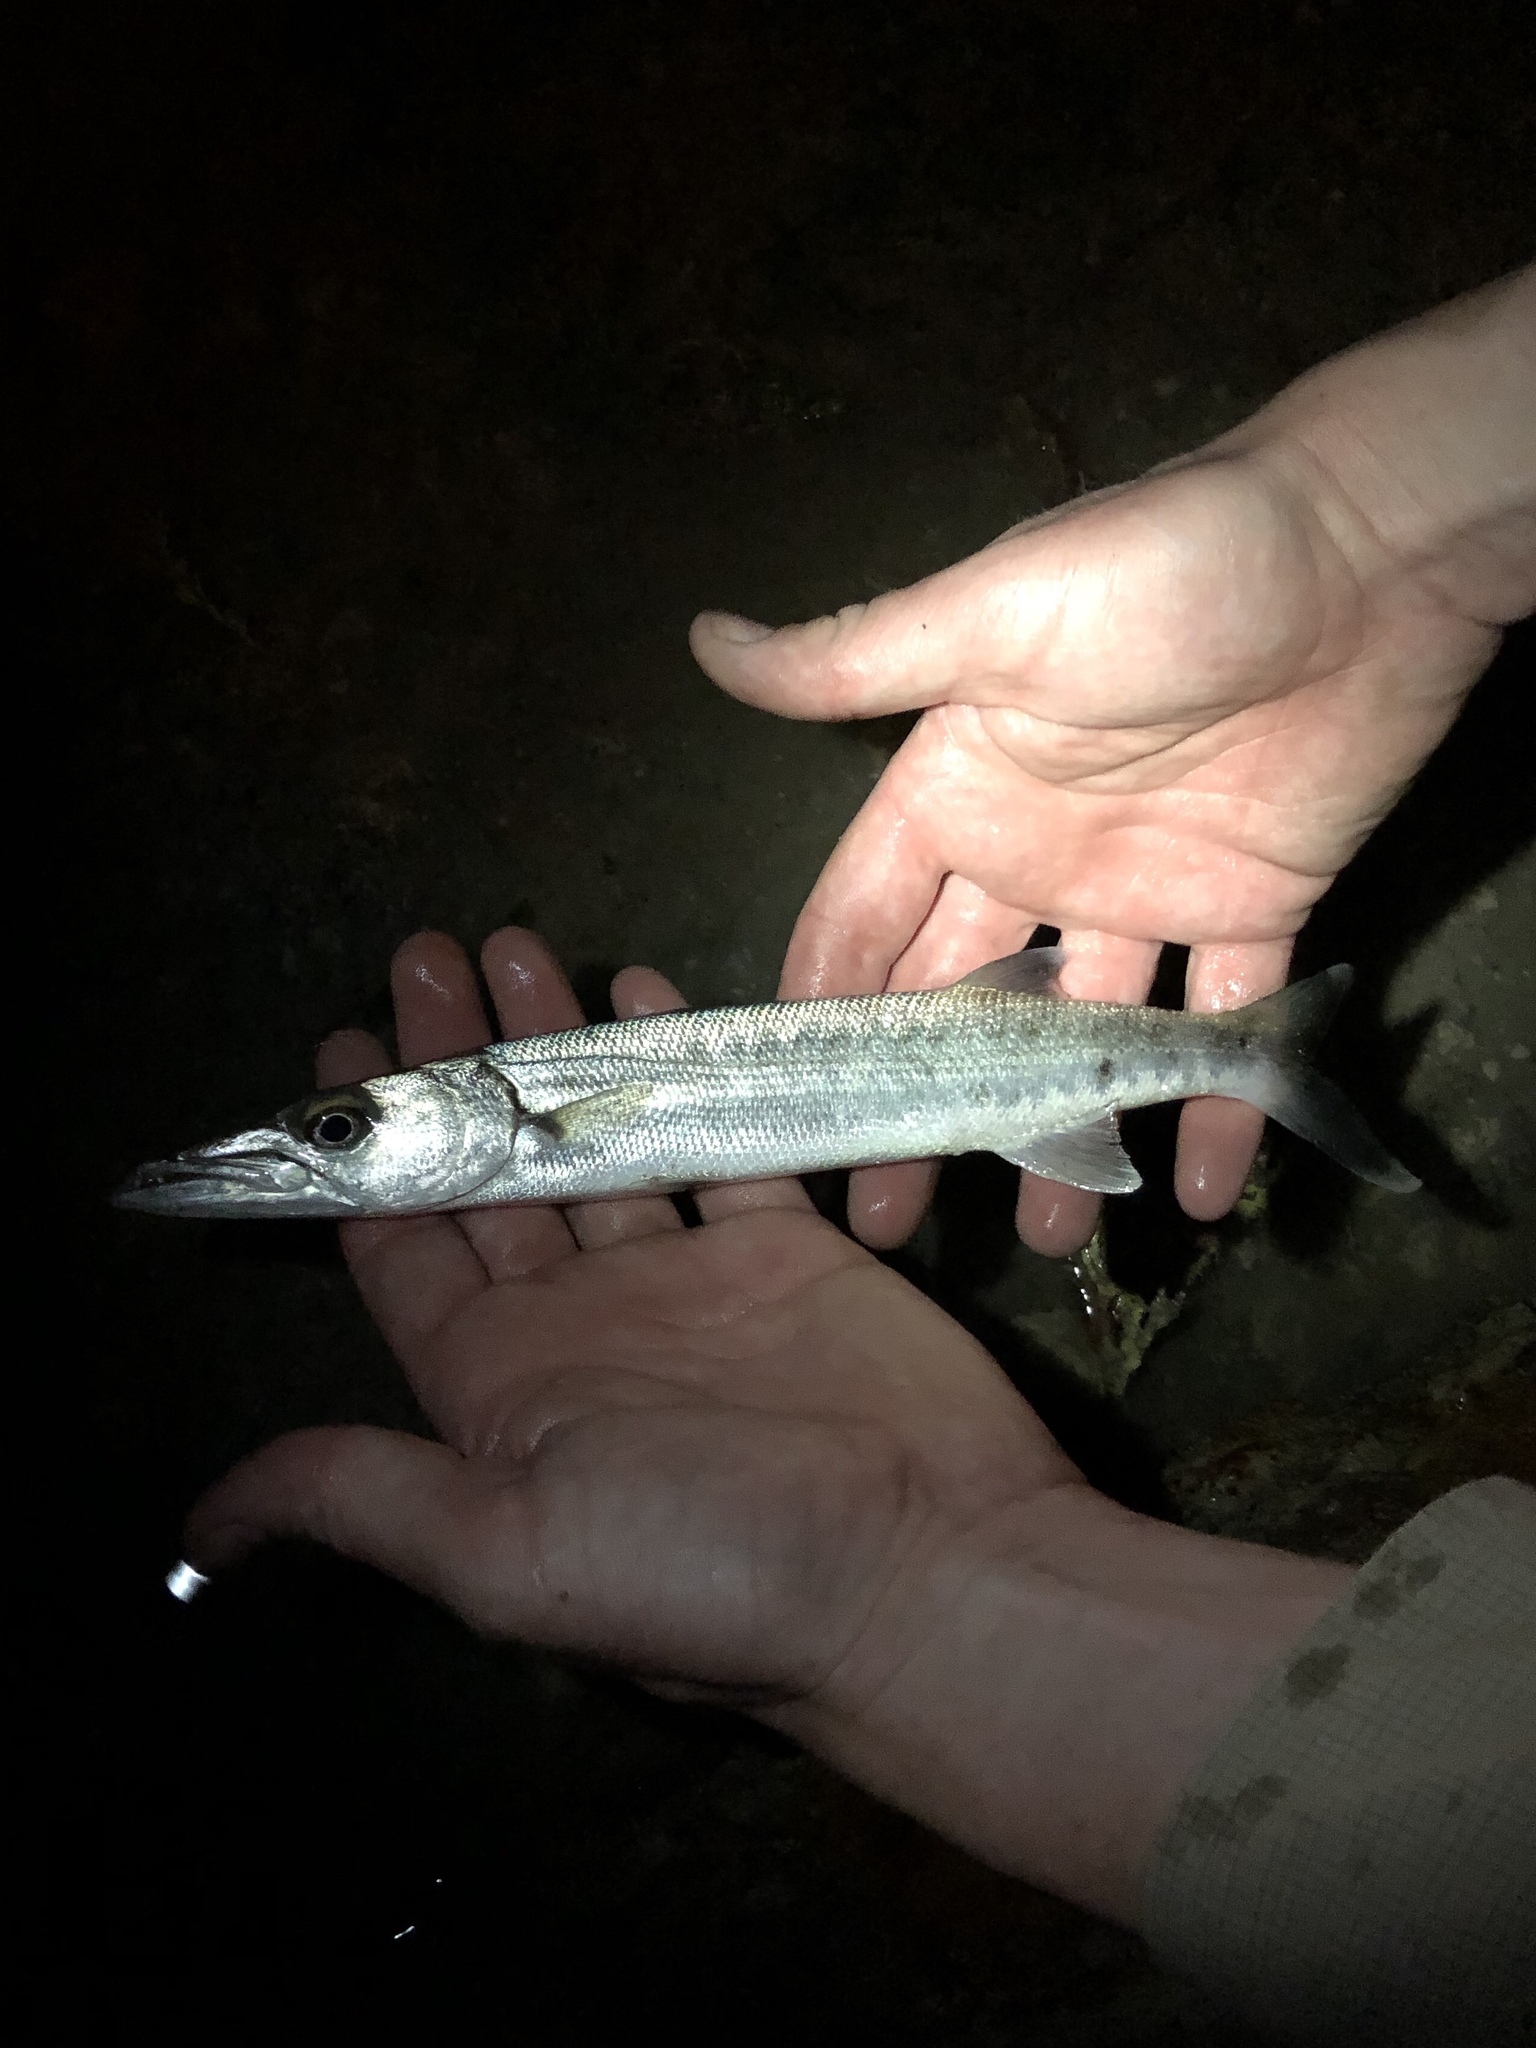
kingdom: Animalia
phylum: Chordata
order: Perciformes
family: Sphyraenidae
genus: Sphyraena
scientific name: Sphyraena barracuda
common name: Great barracuda
